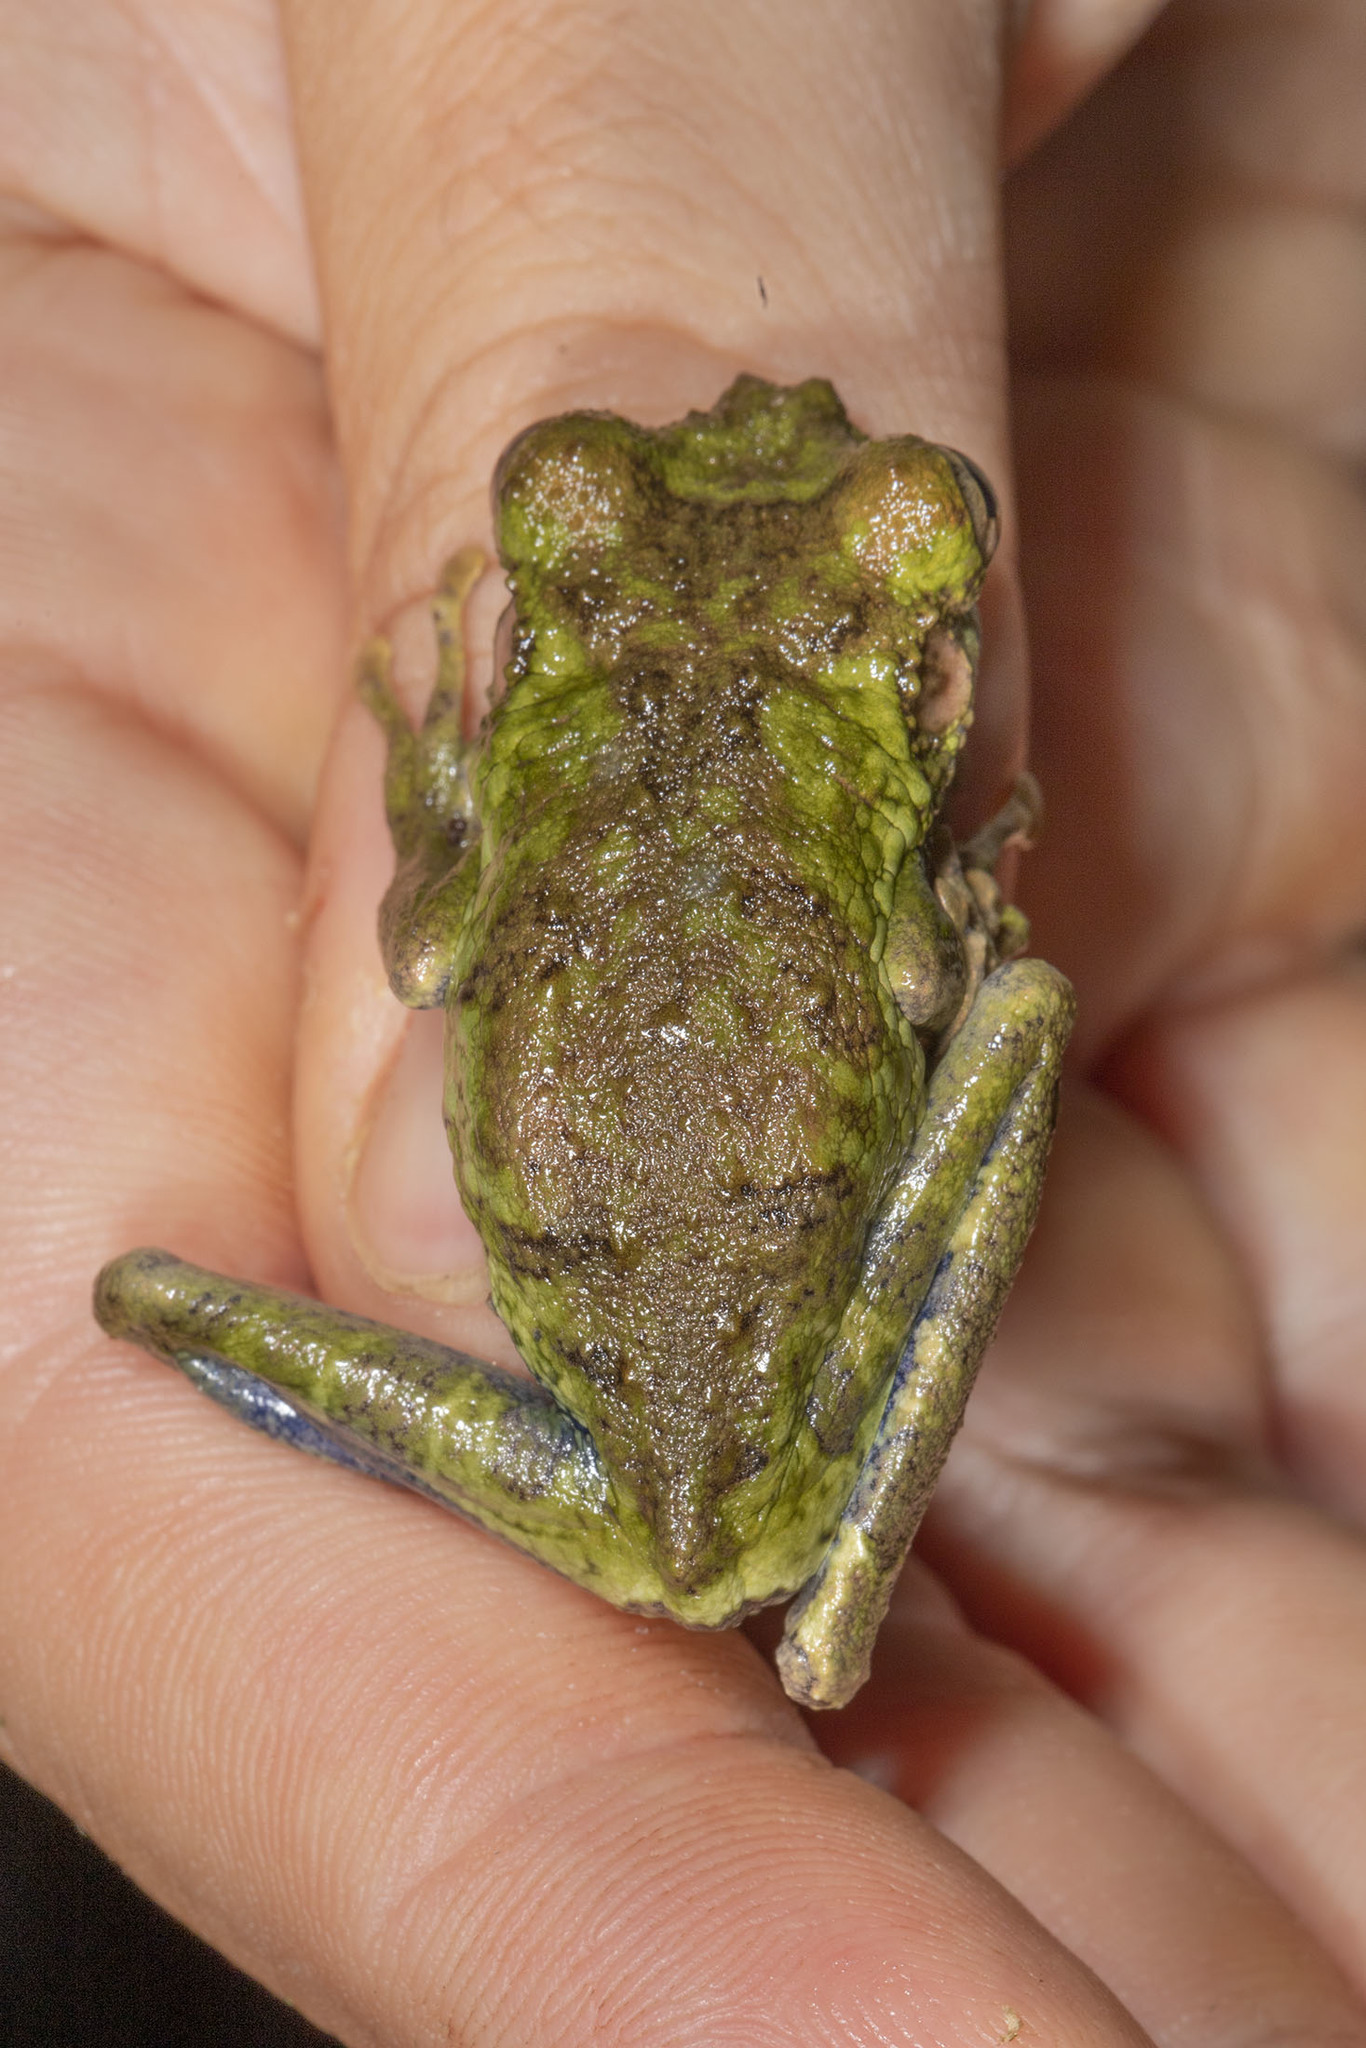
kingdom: Animalia
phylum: Chordata
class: Amphibia
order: Anura
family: Hylidae
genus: Osteocephalus
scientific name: Osteocephalus buckleyi
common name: Buckley's slender-legged treefrog
